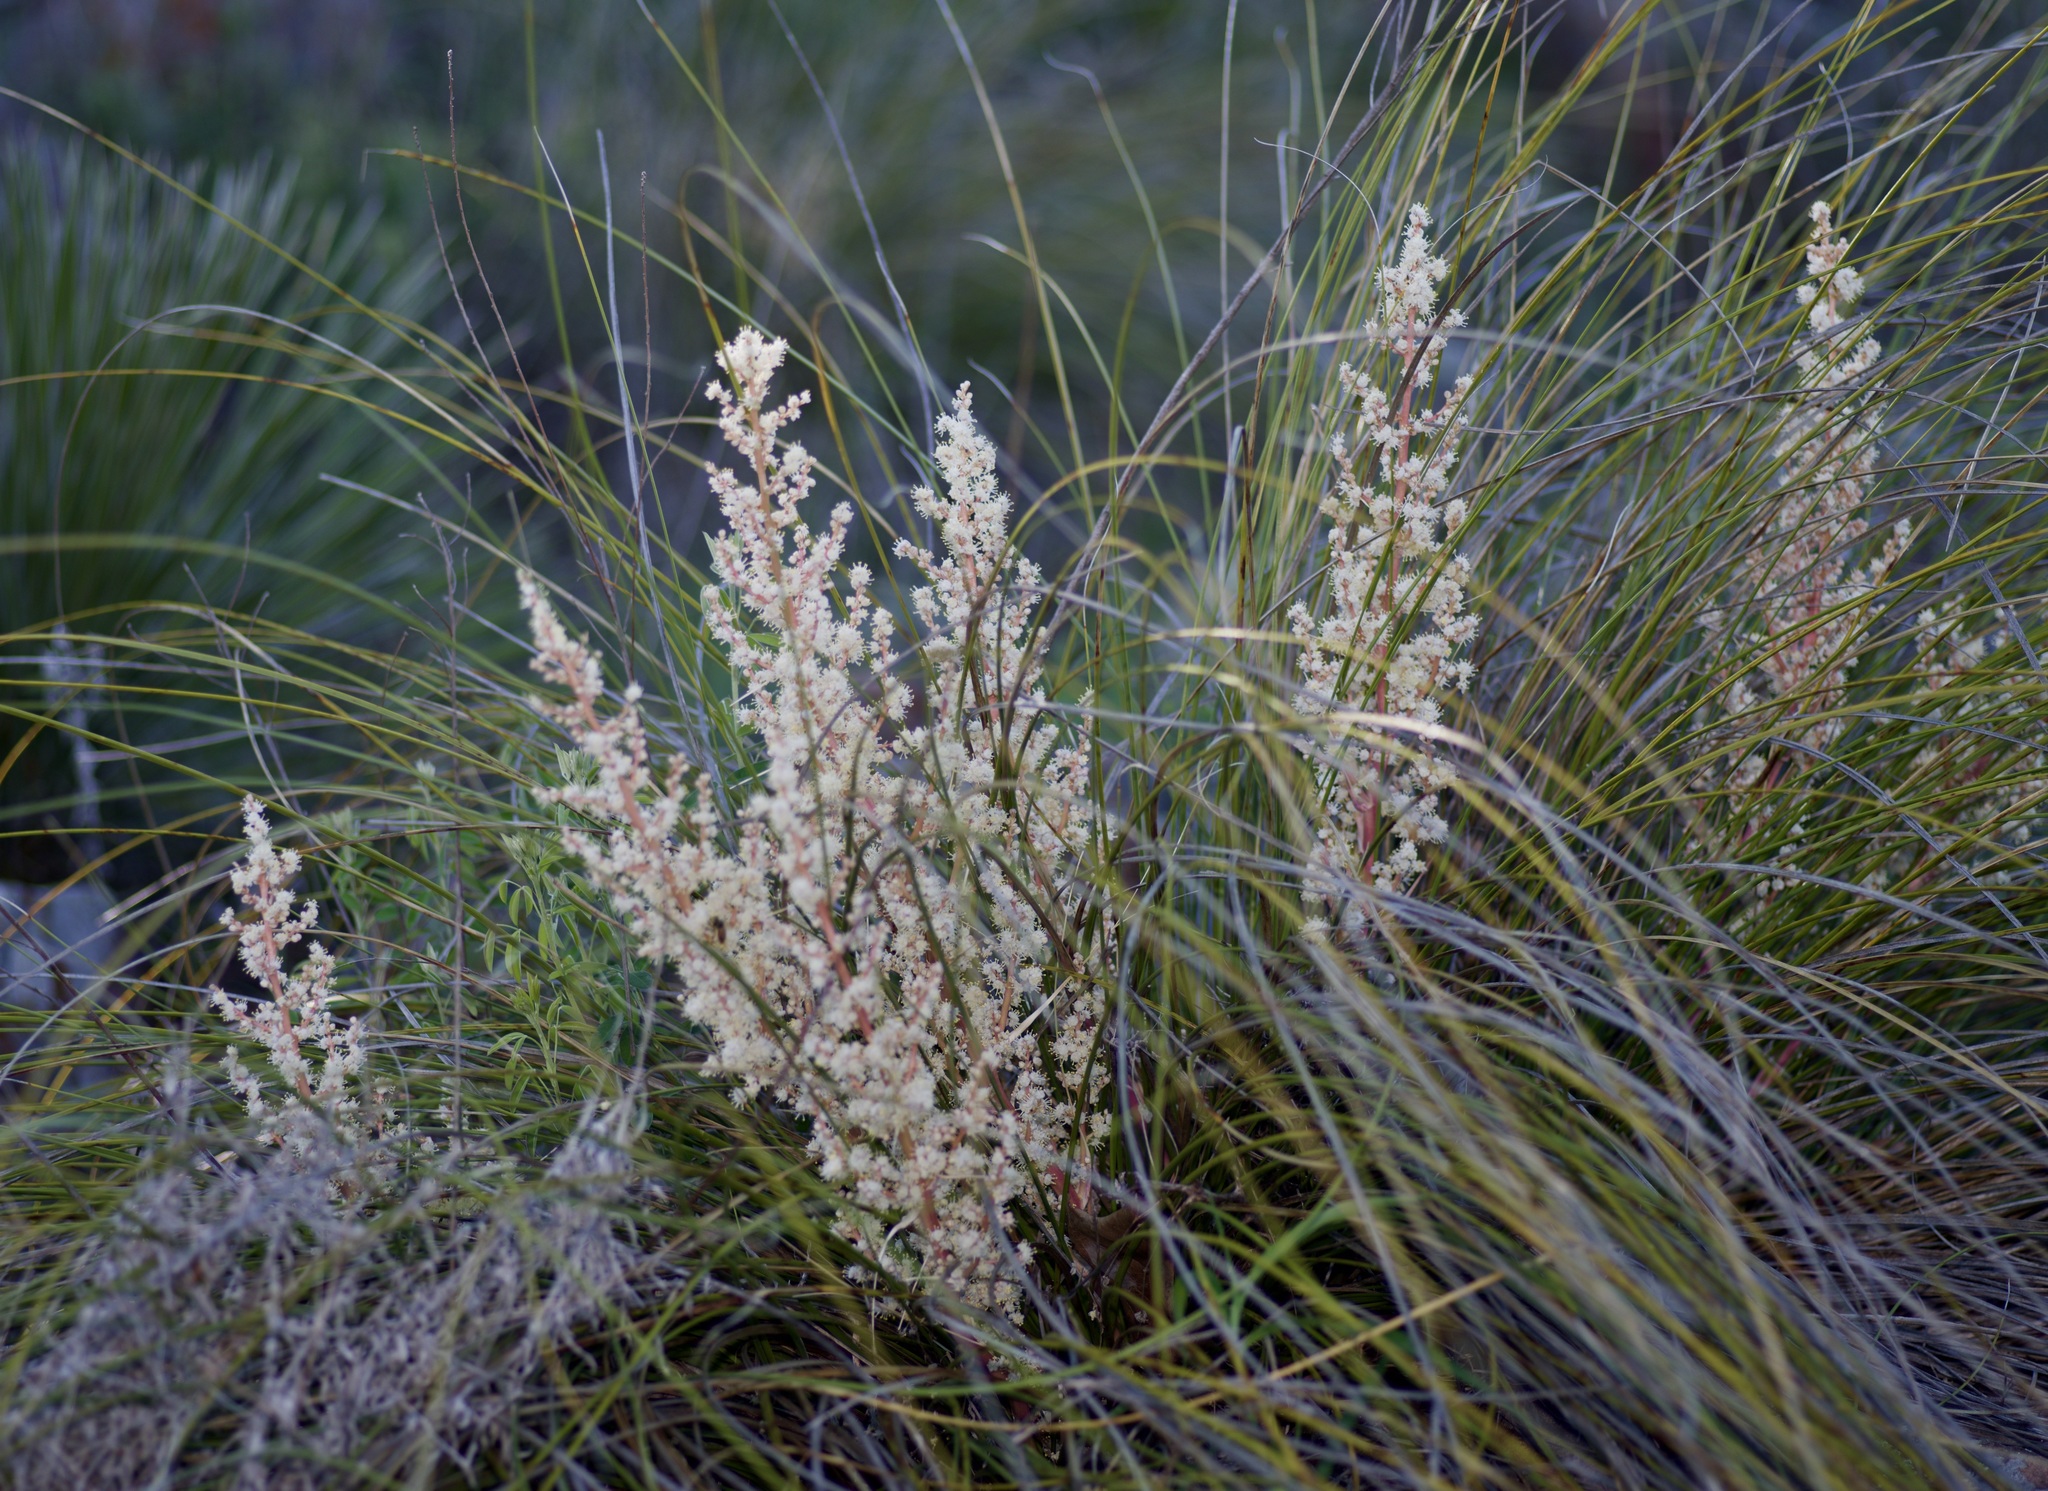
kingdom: Plantae
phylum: Tracheophyta
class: Liliopsida
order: Asparagales
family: Asparagaceae
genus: Nolina
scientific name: Nolina texana
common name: Texas sacahuiste
